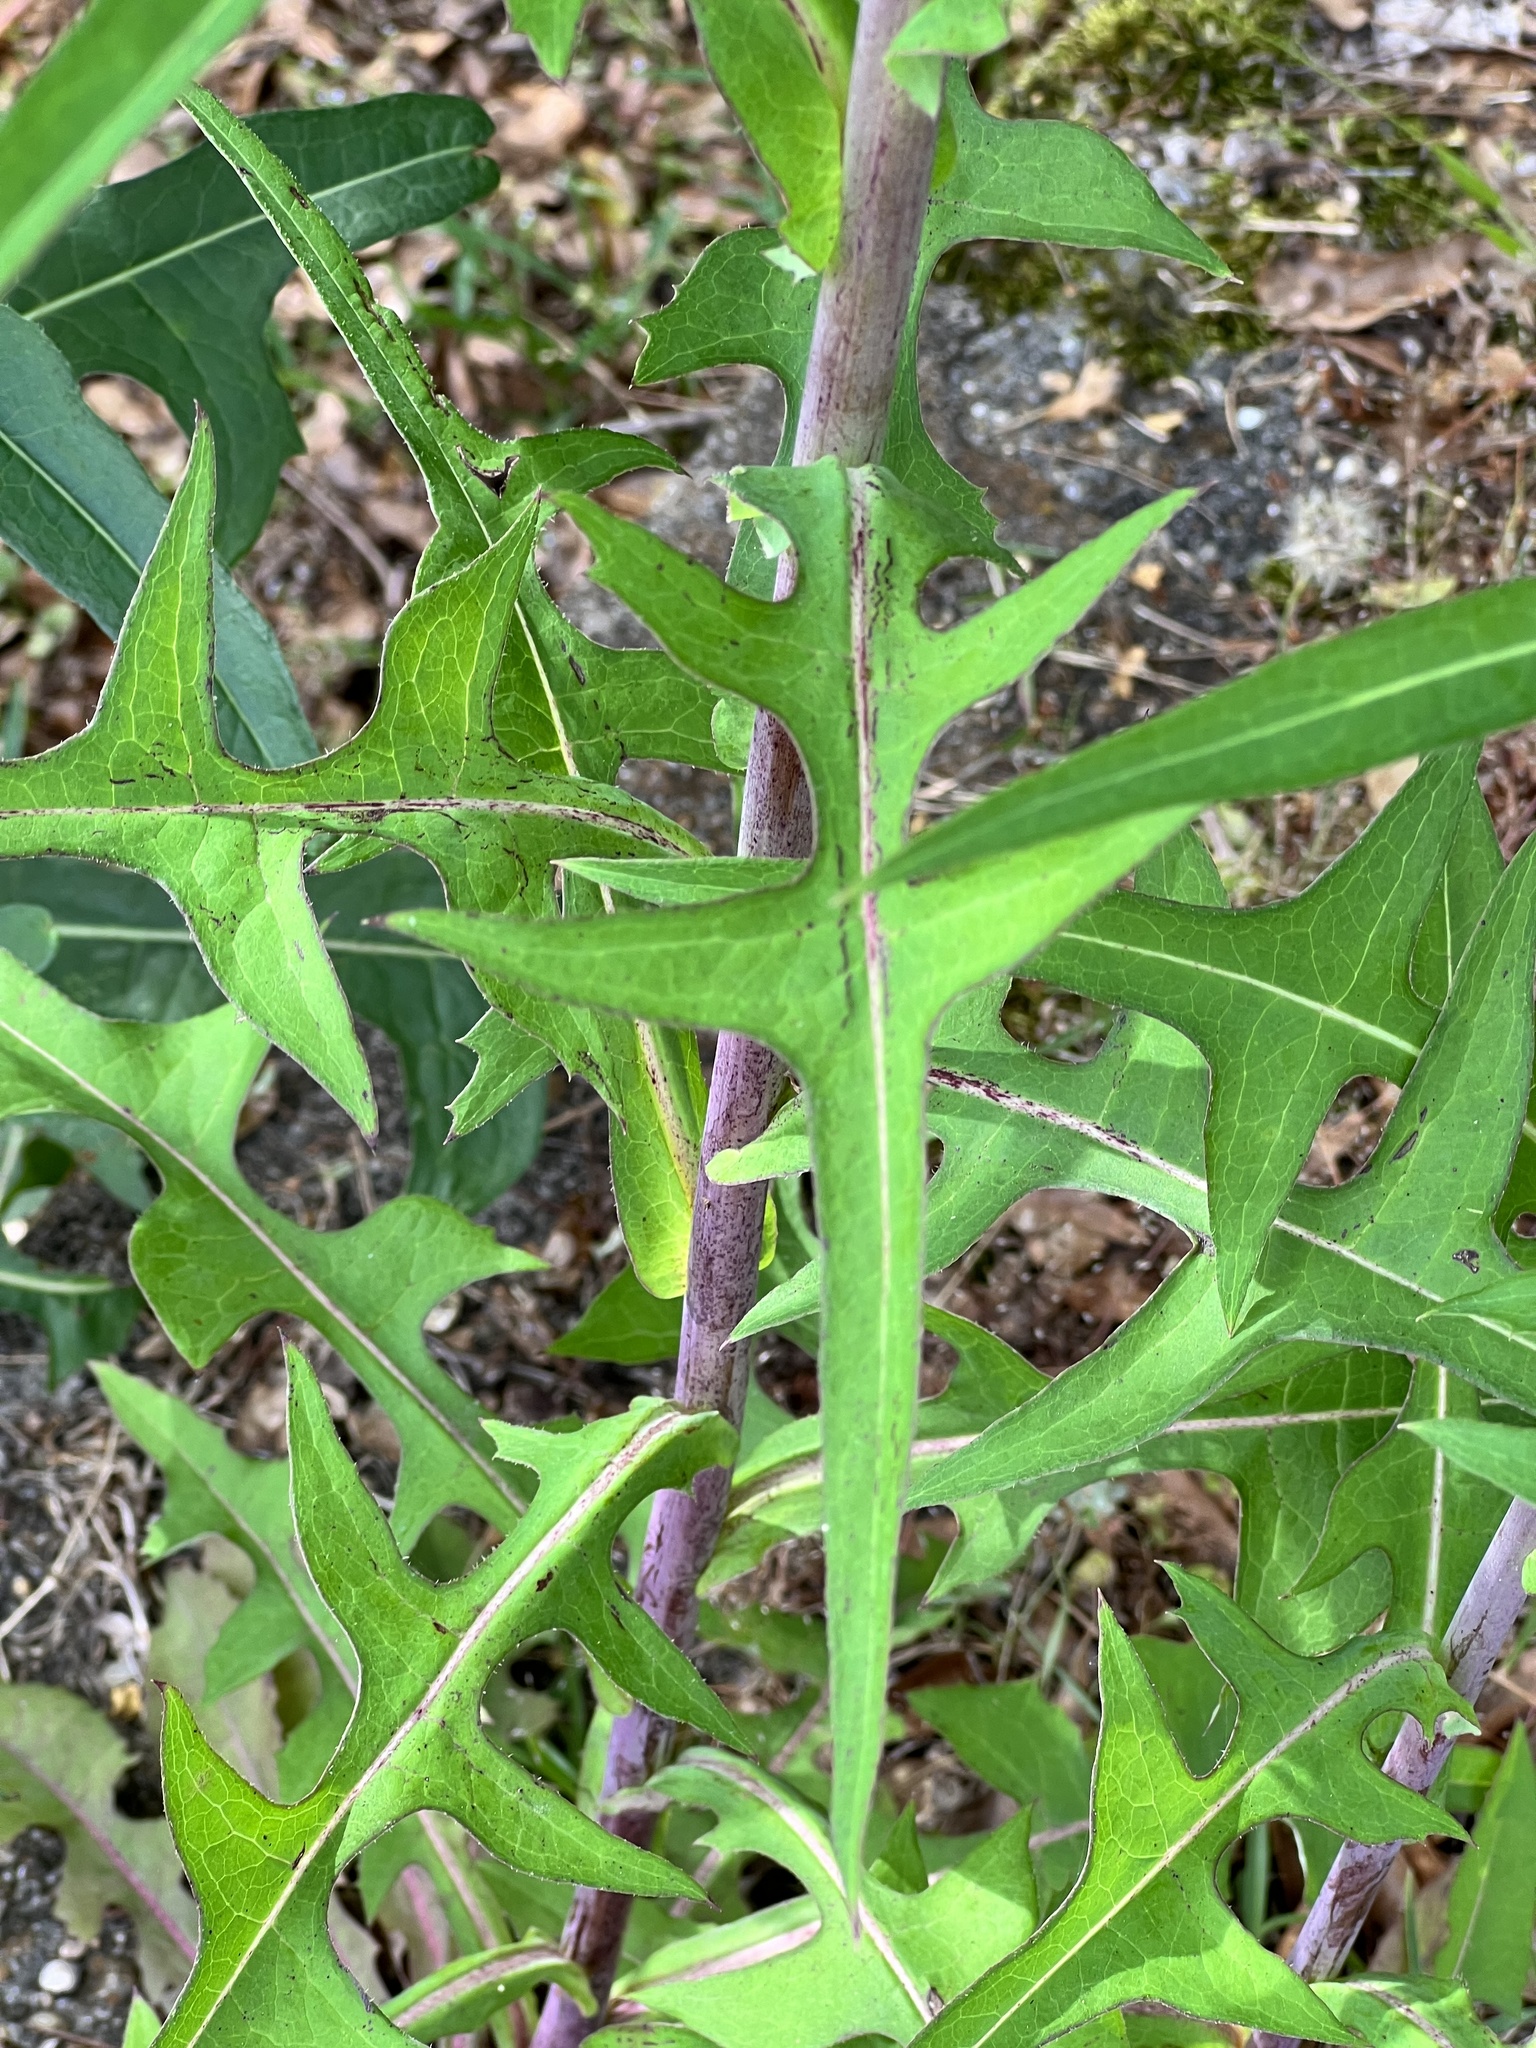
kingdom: Plantae
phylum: Tracheophyta
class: Magnoliopsida
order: Asterales
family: Asteraceae
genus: Lactuca
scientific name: Lactuca canadensis
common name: Canada lettuce
